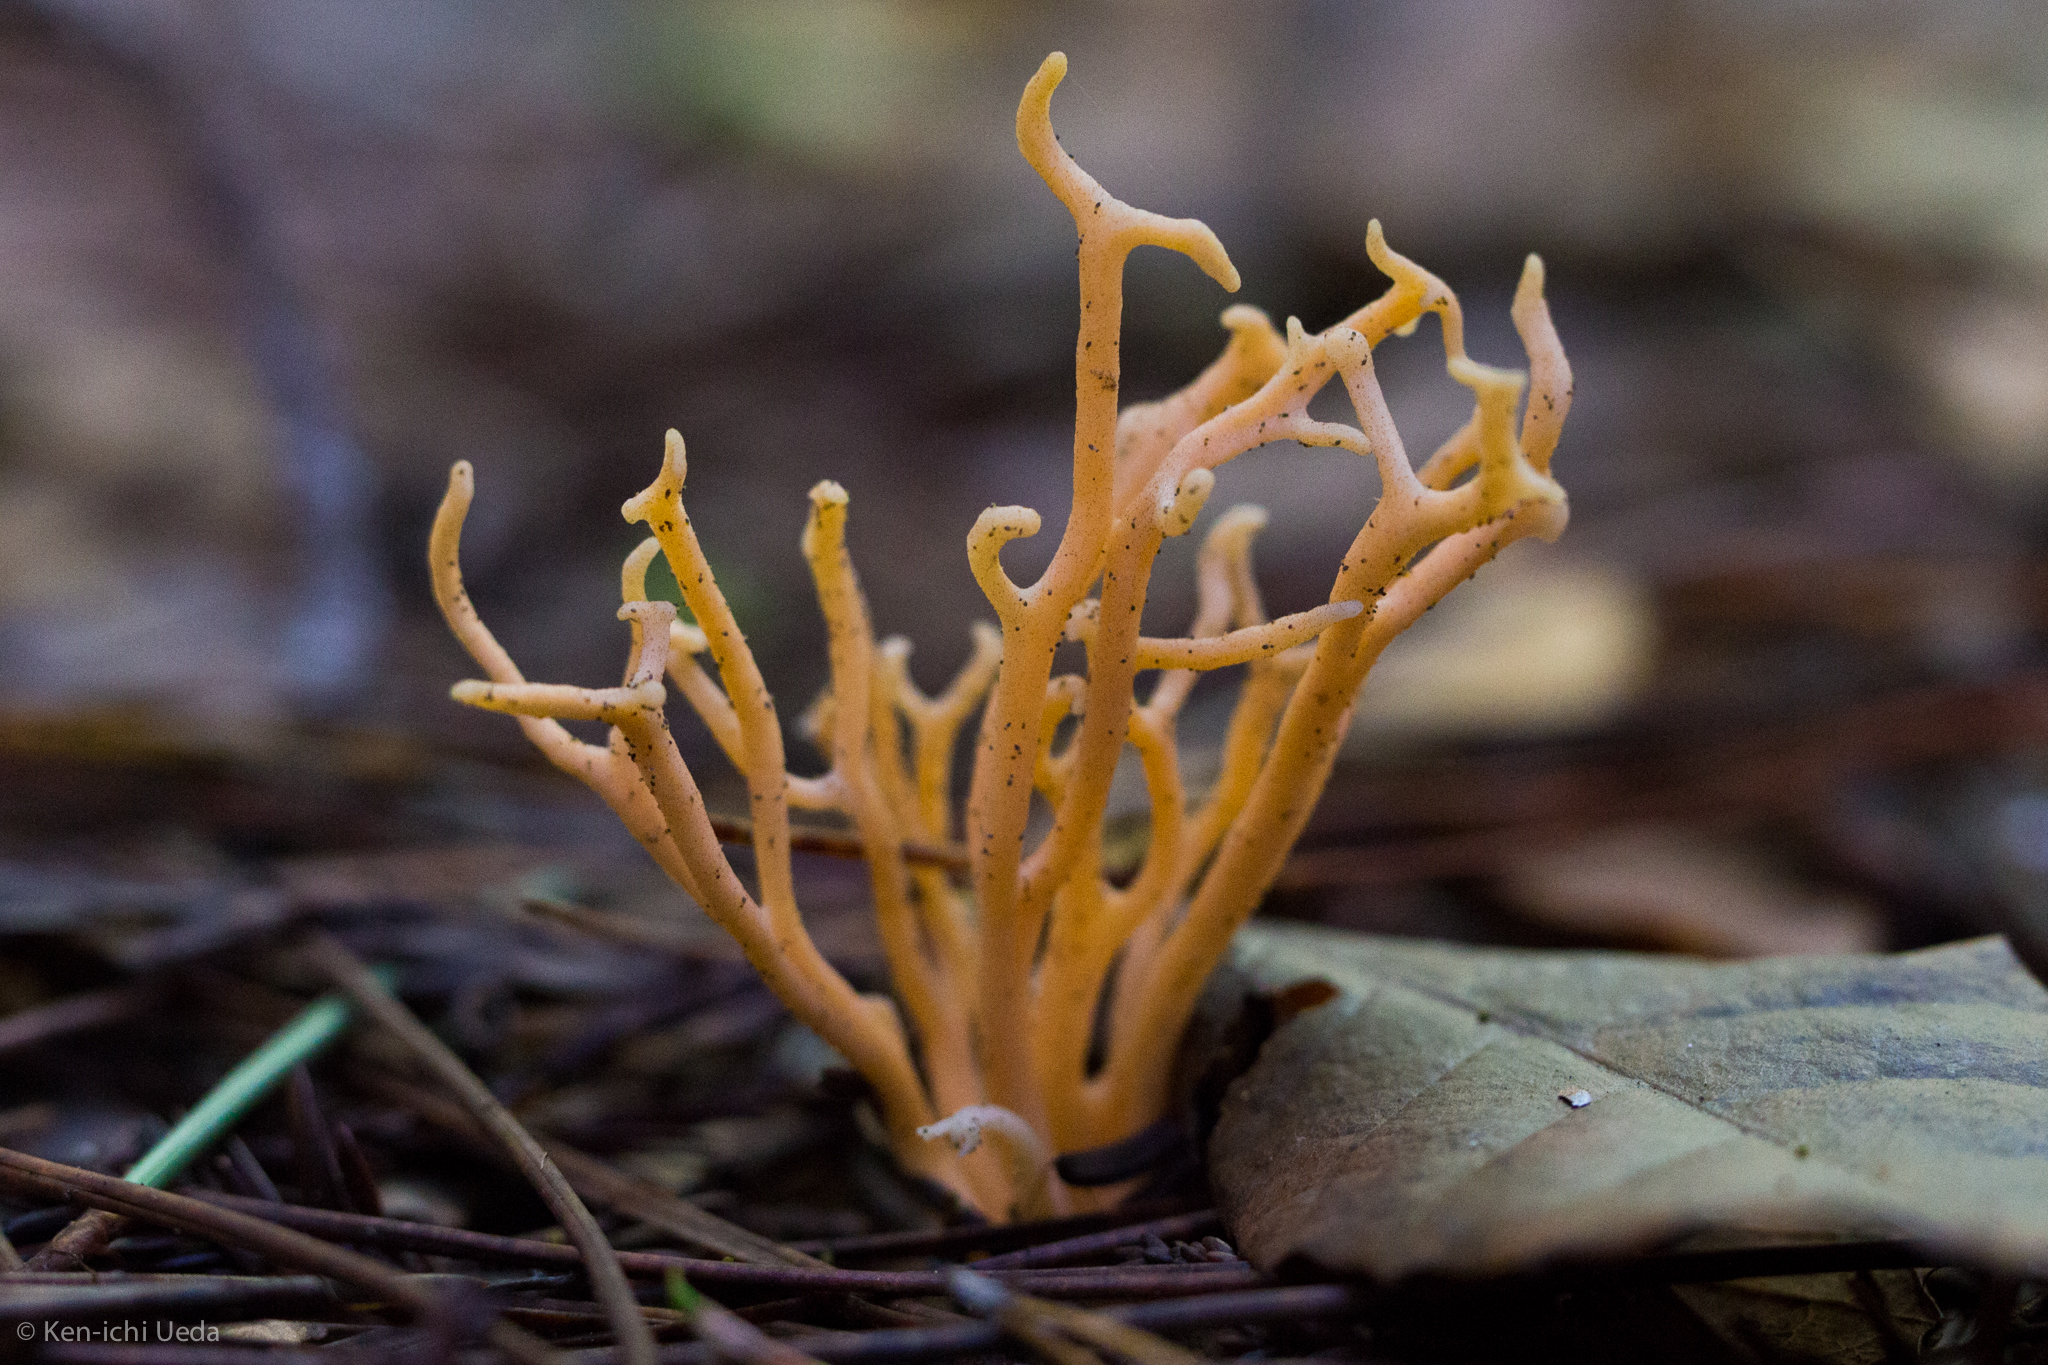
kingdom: Fungi
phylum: Basidiomycota
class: Agaricomycetes
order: Agaricales
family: Clavariaceae
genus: Clavulinopsis
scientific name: Clavulinopsis corniculata
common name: Meadow coral
